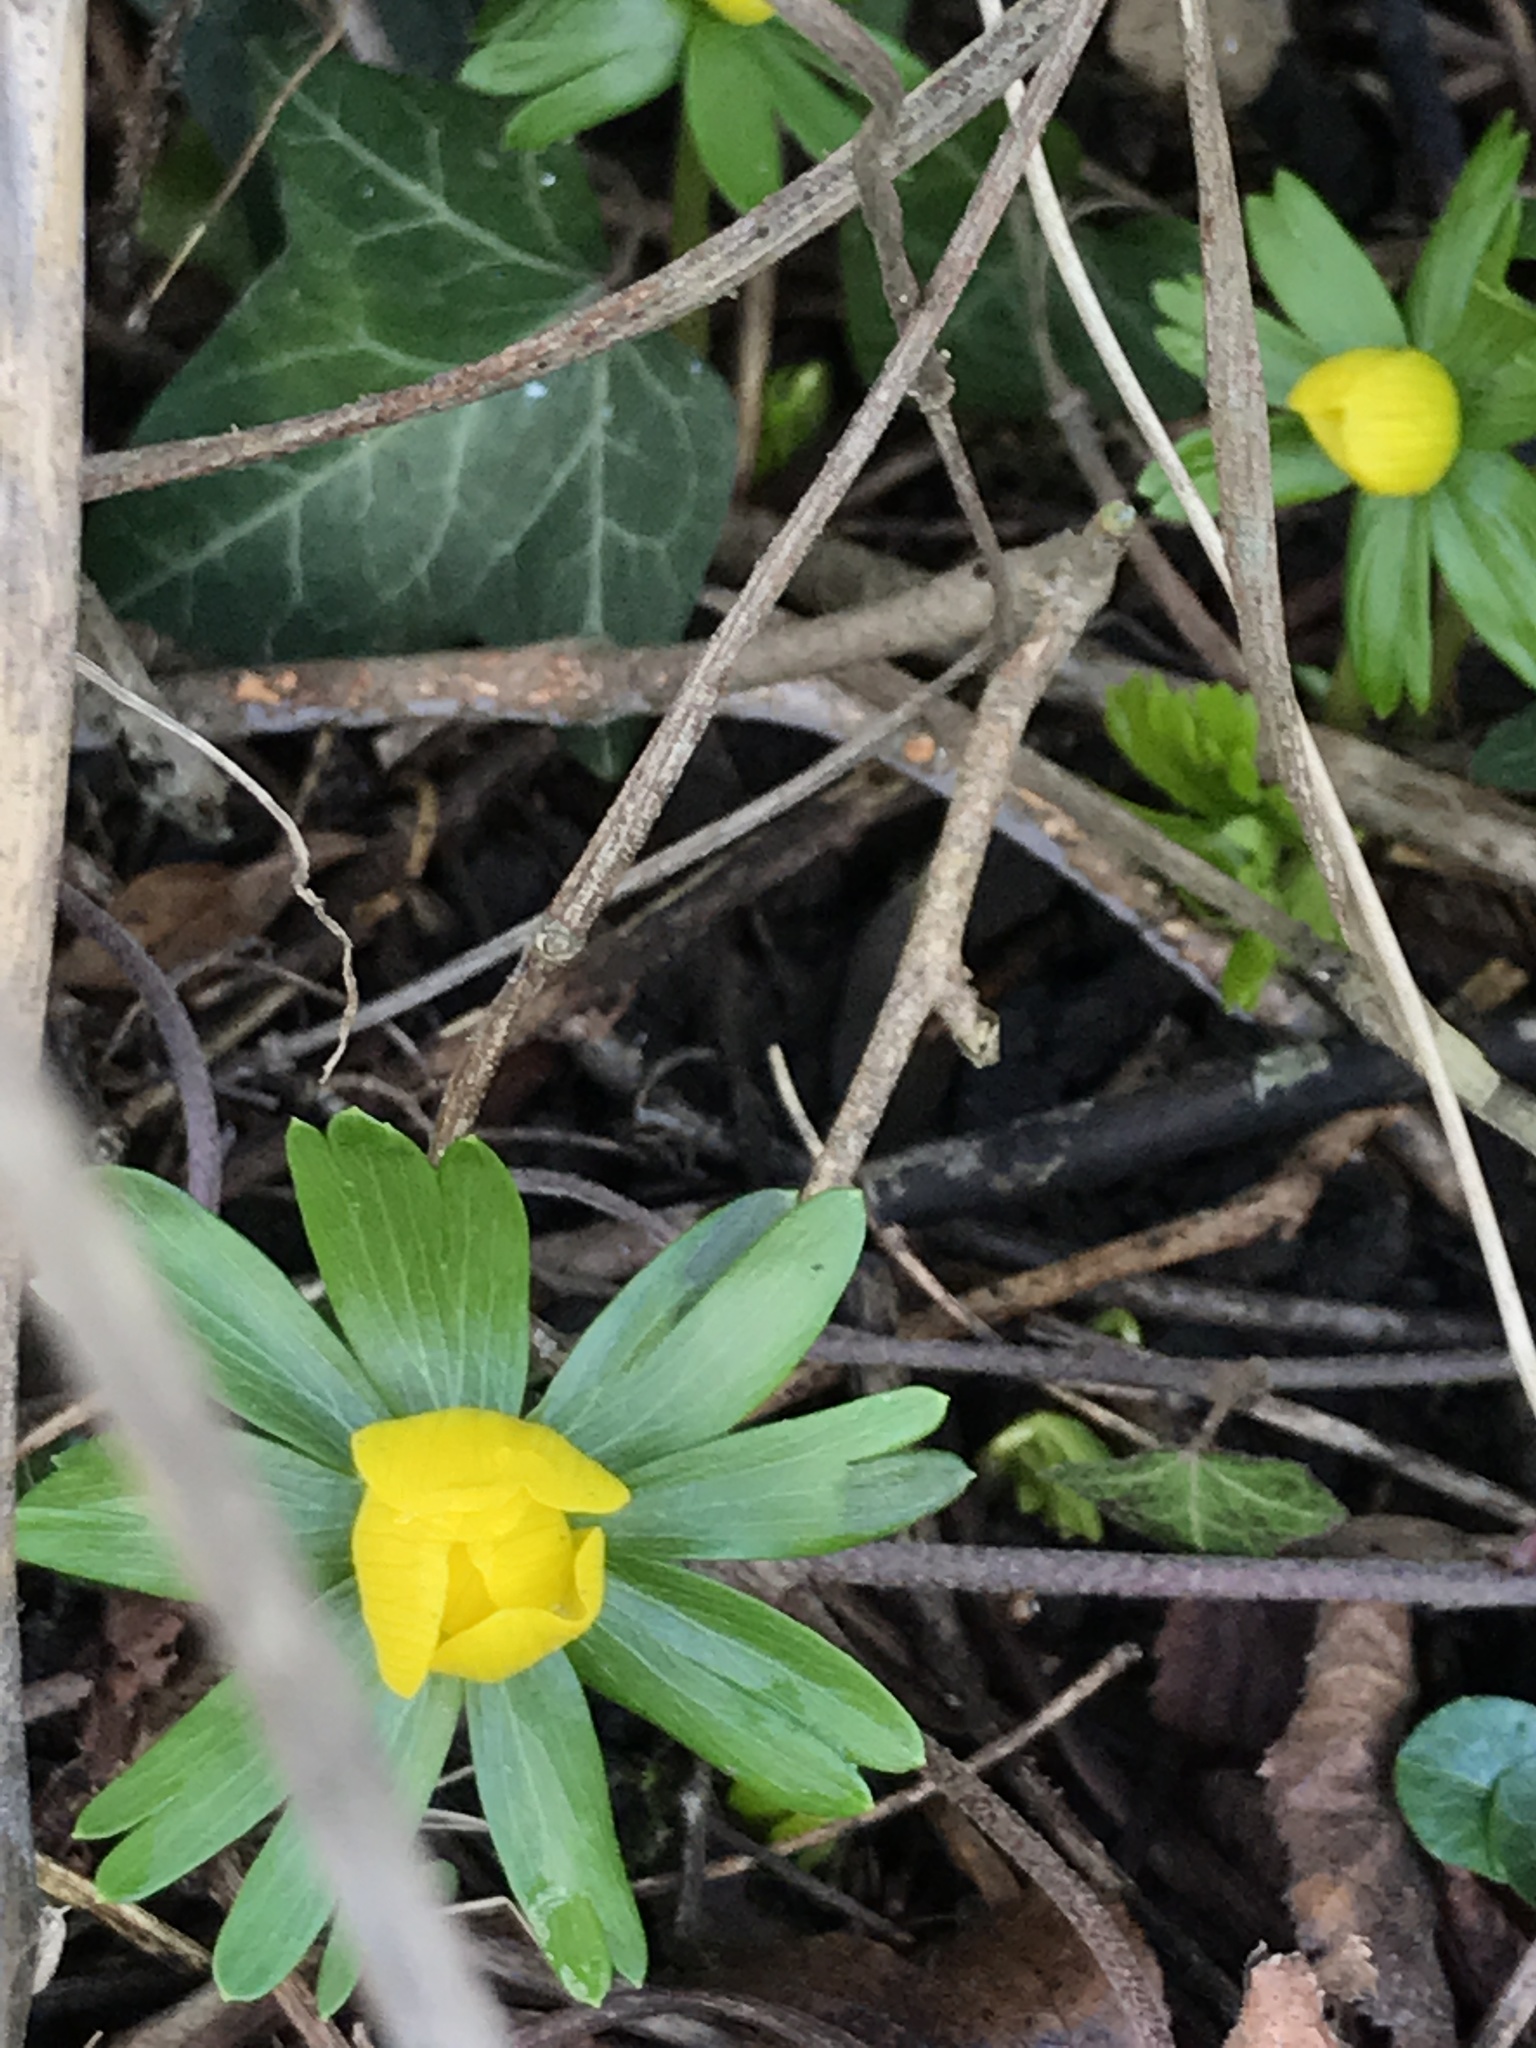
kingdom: Plantae
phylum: Tracheophyta
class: Magnoliopsida
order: Ranunculales
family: Ranunculaceae
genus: Eranthis
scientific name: Eranthis hyemalis
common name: Winter aconite
